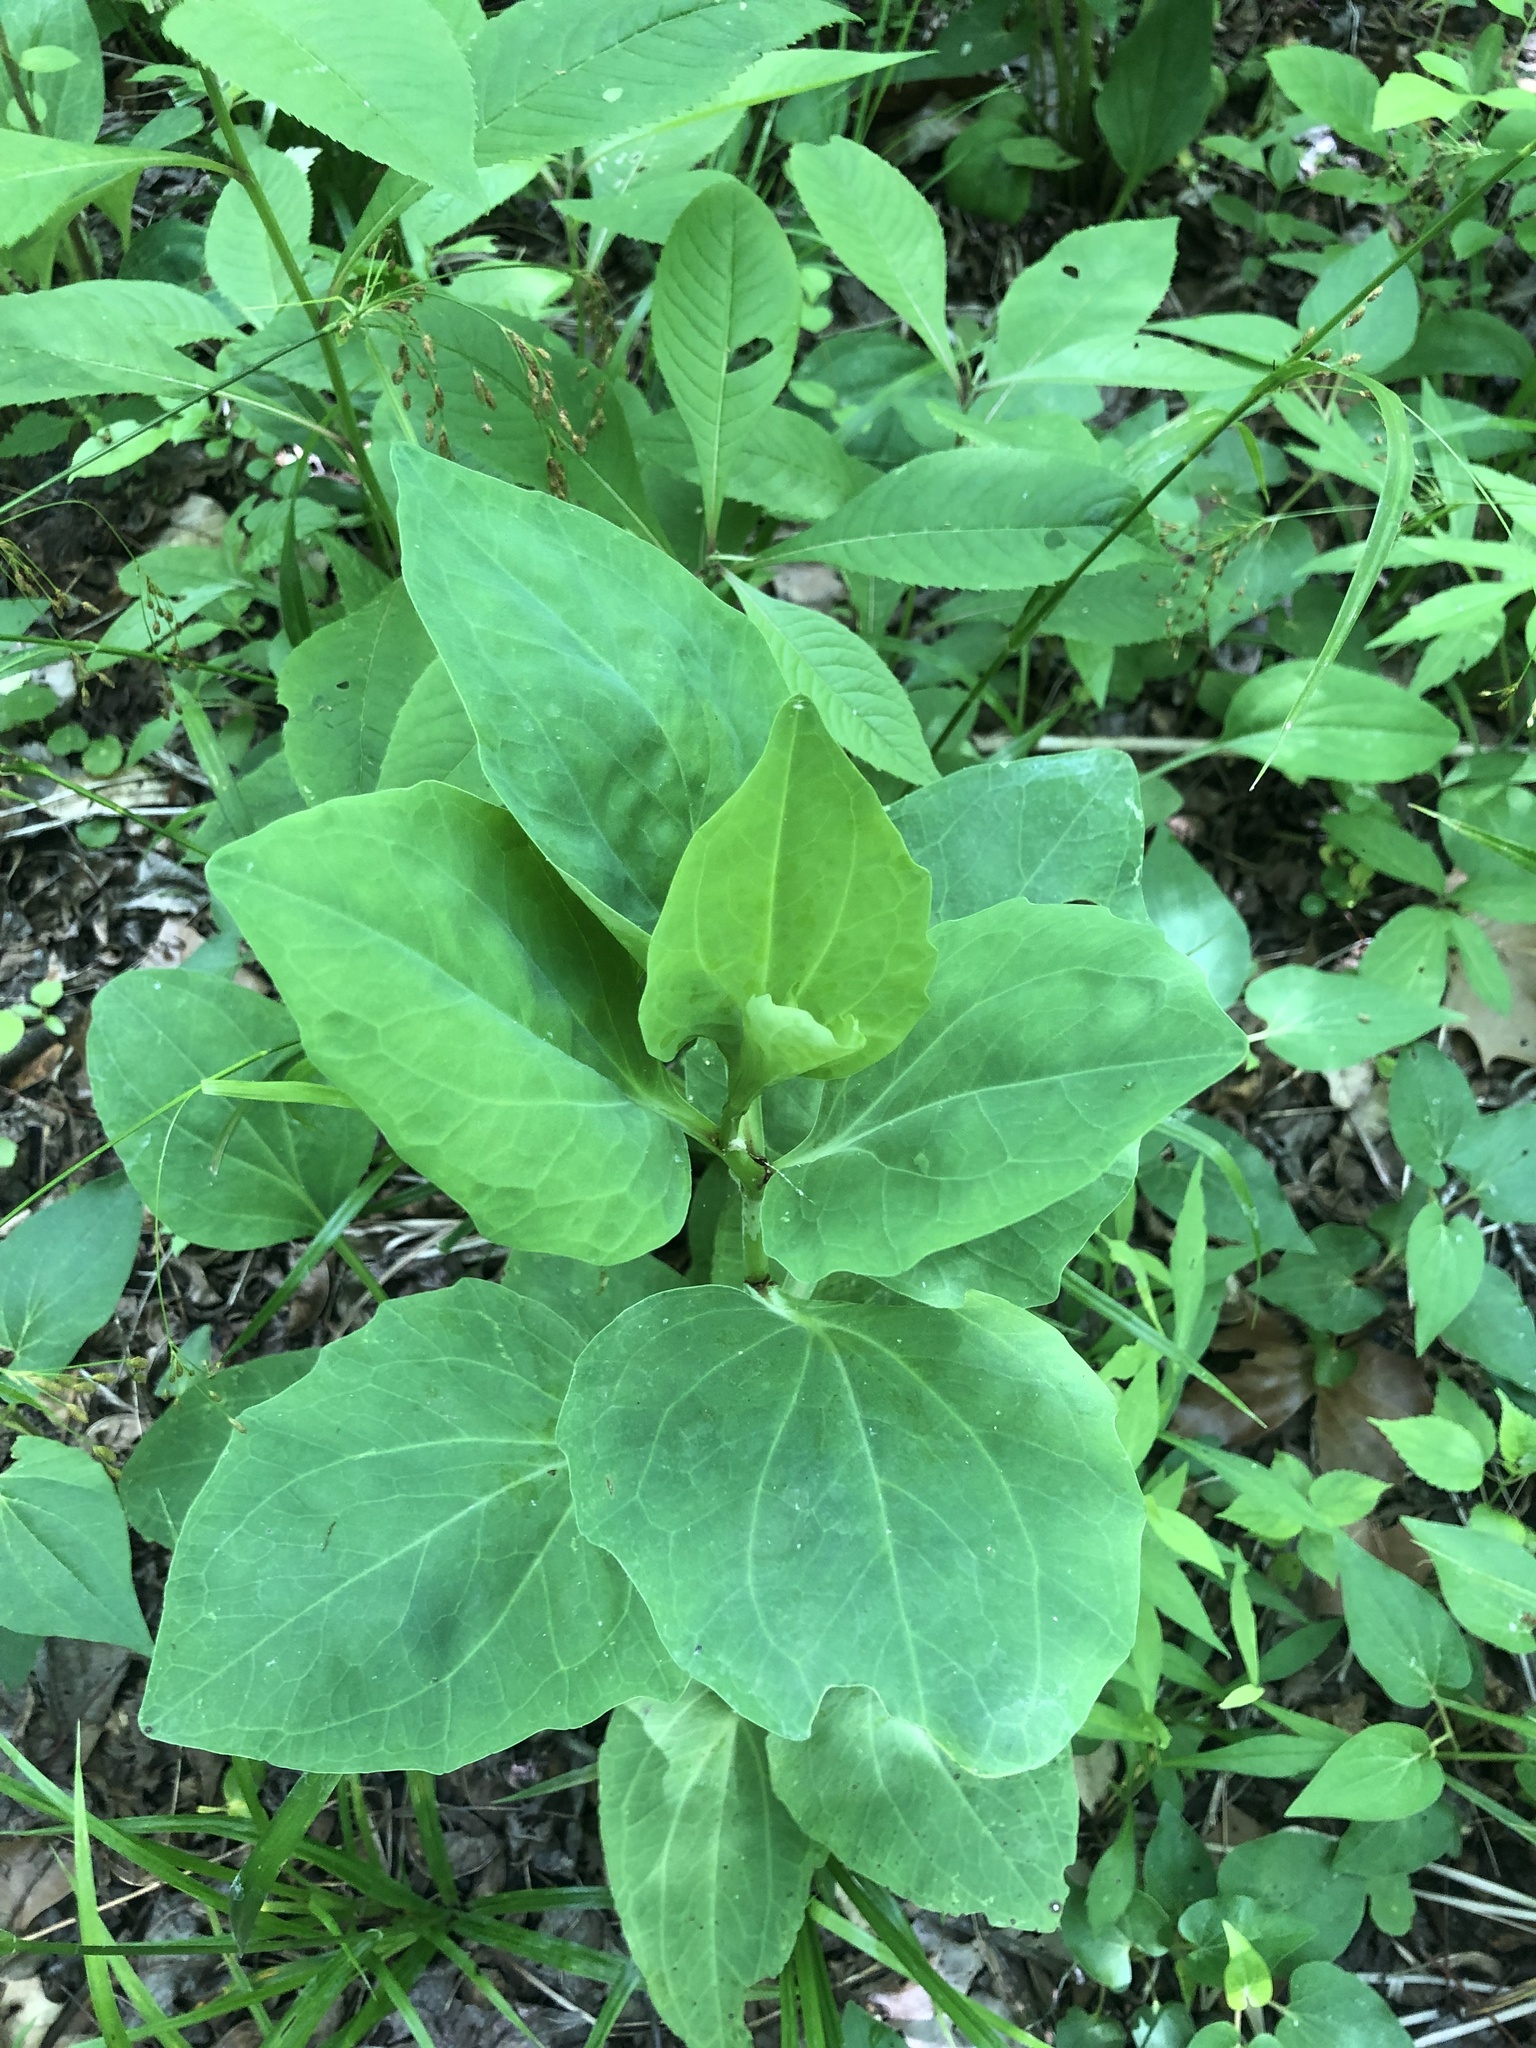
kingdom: Plantae
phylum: Tracheophyta
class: Magnoliopsida
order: Asterales
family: Asteraceae
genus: Arnoglossum
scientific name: Arnoglossum ovatum
